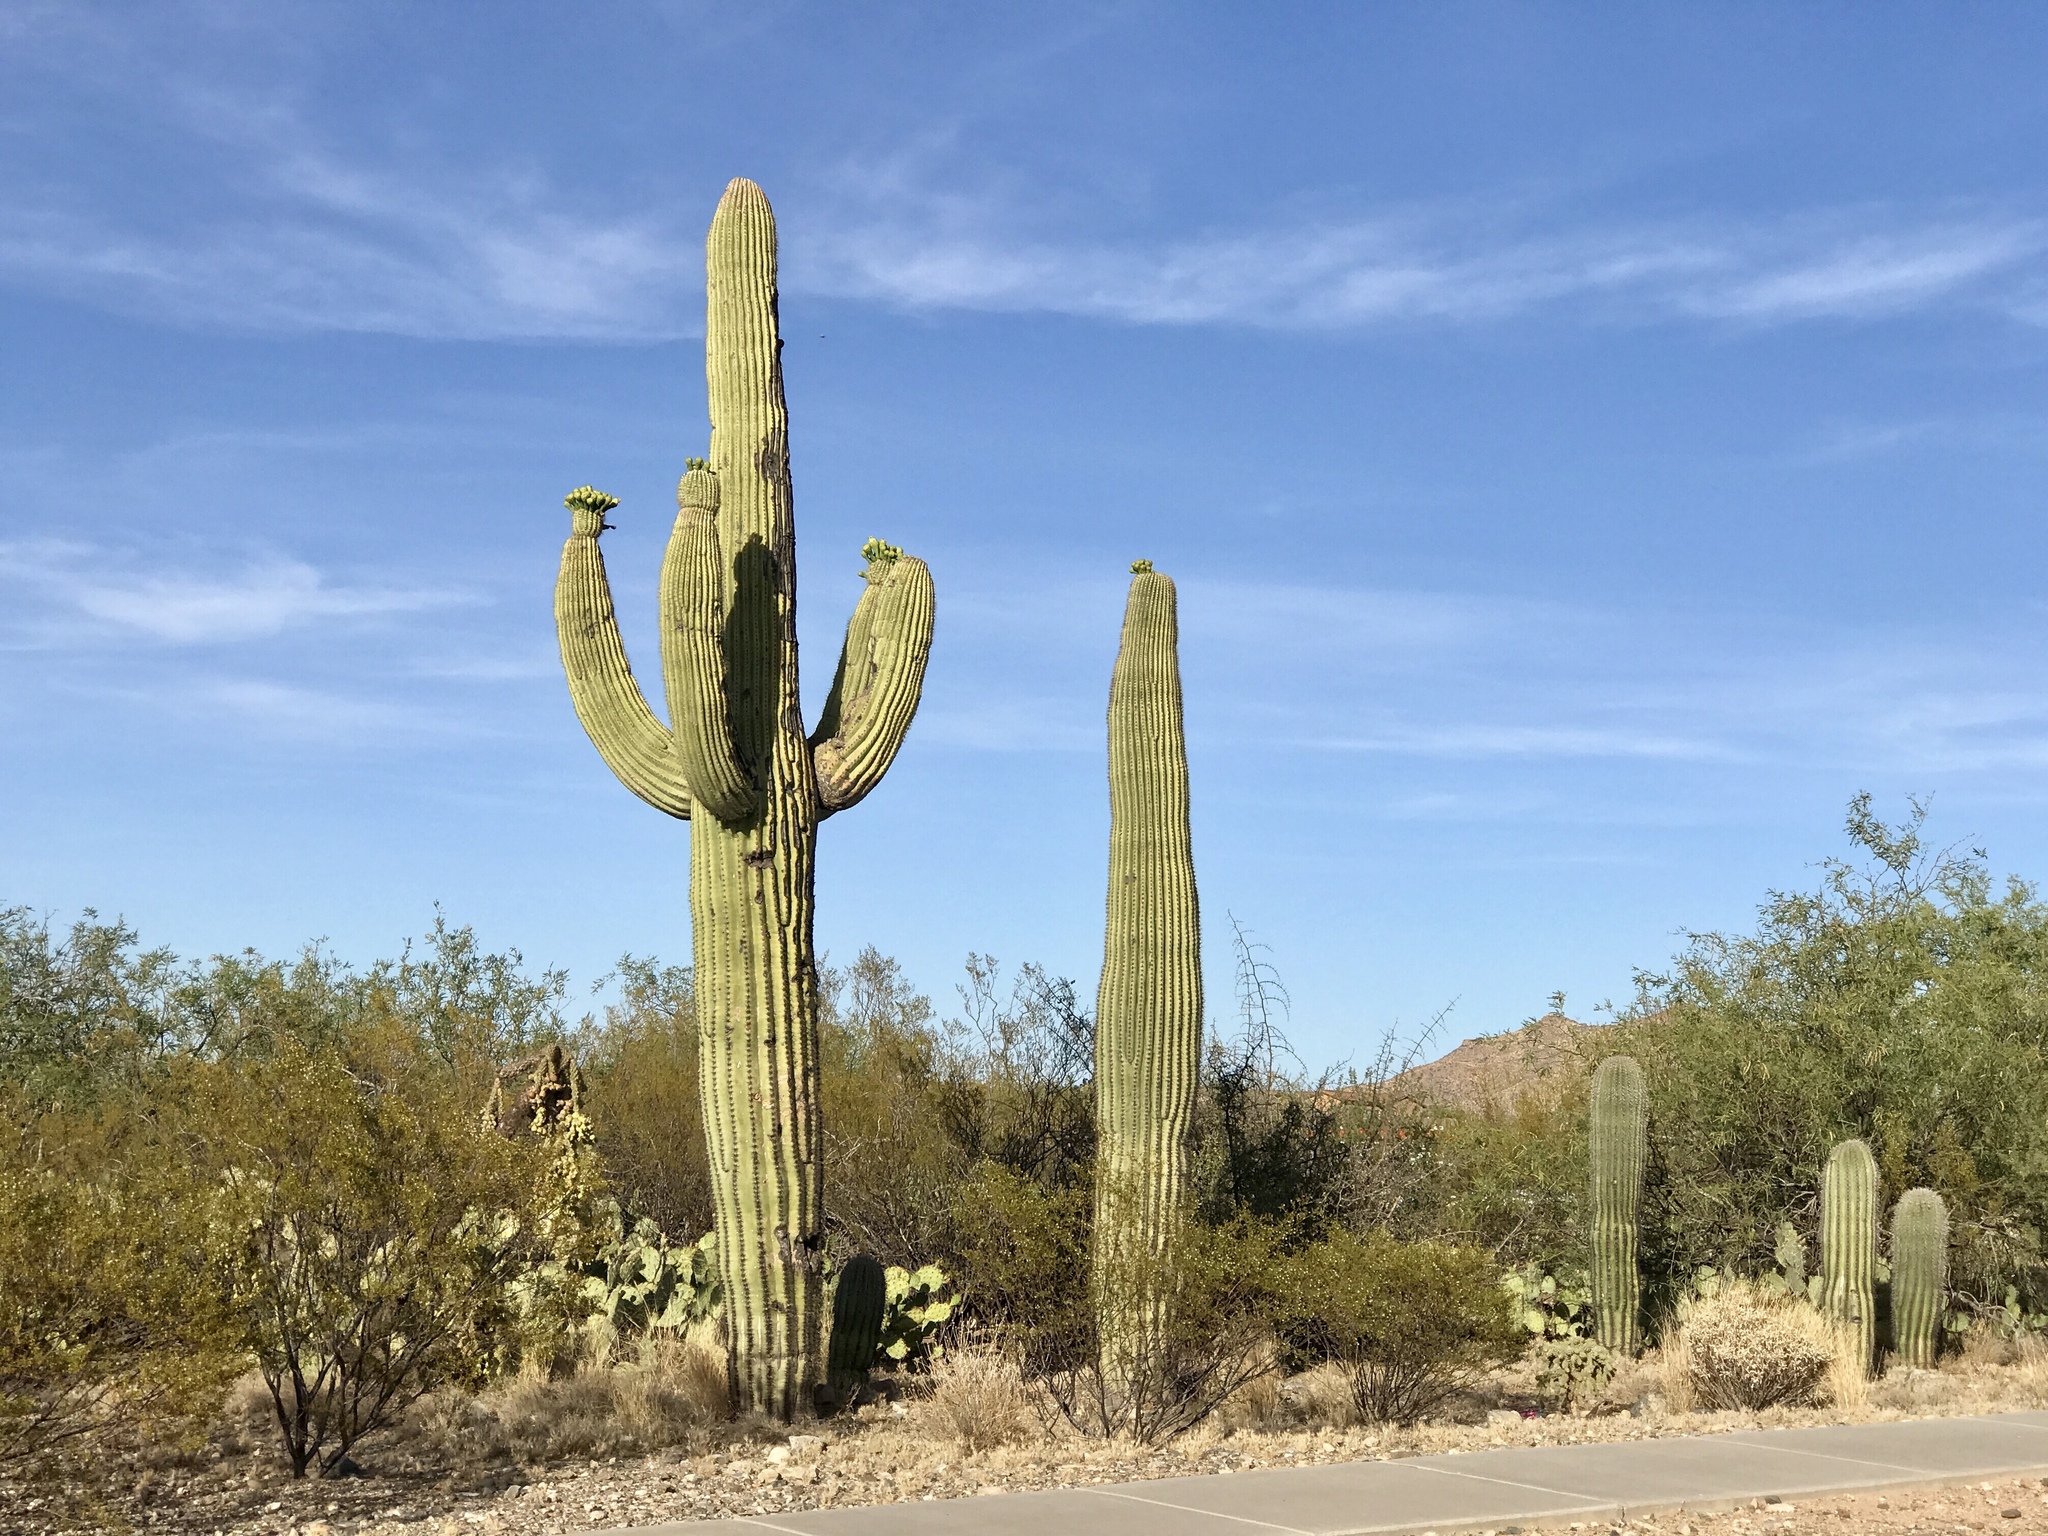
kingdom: Plantae
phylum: Tracheophyta
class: Magnoliopsida
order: Caryophyllales
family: Cactaceae
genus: Carnegiea
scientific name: Carnegiea gigantea
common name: Saguaro
